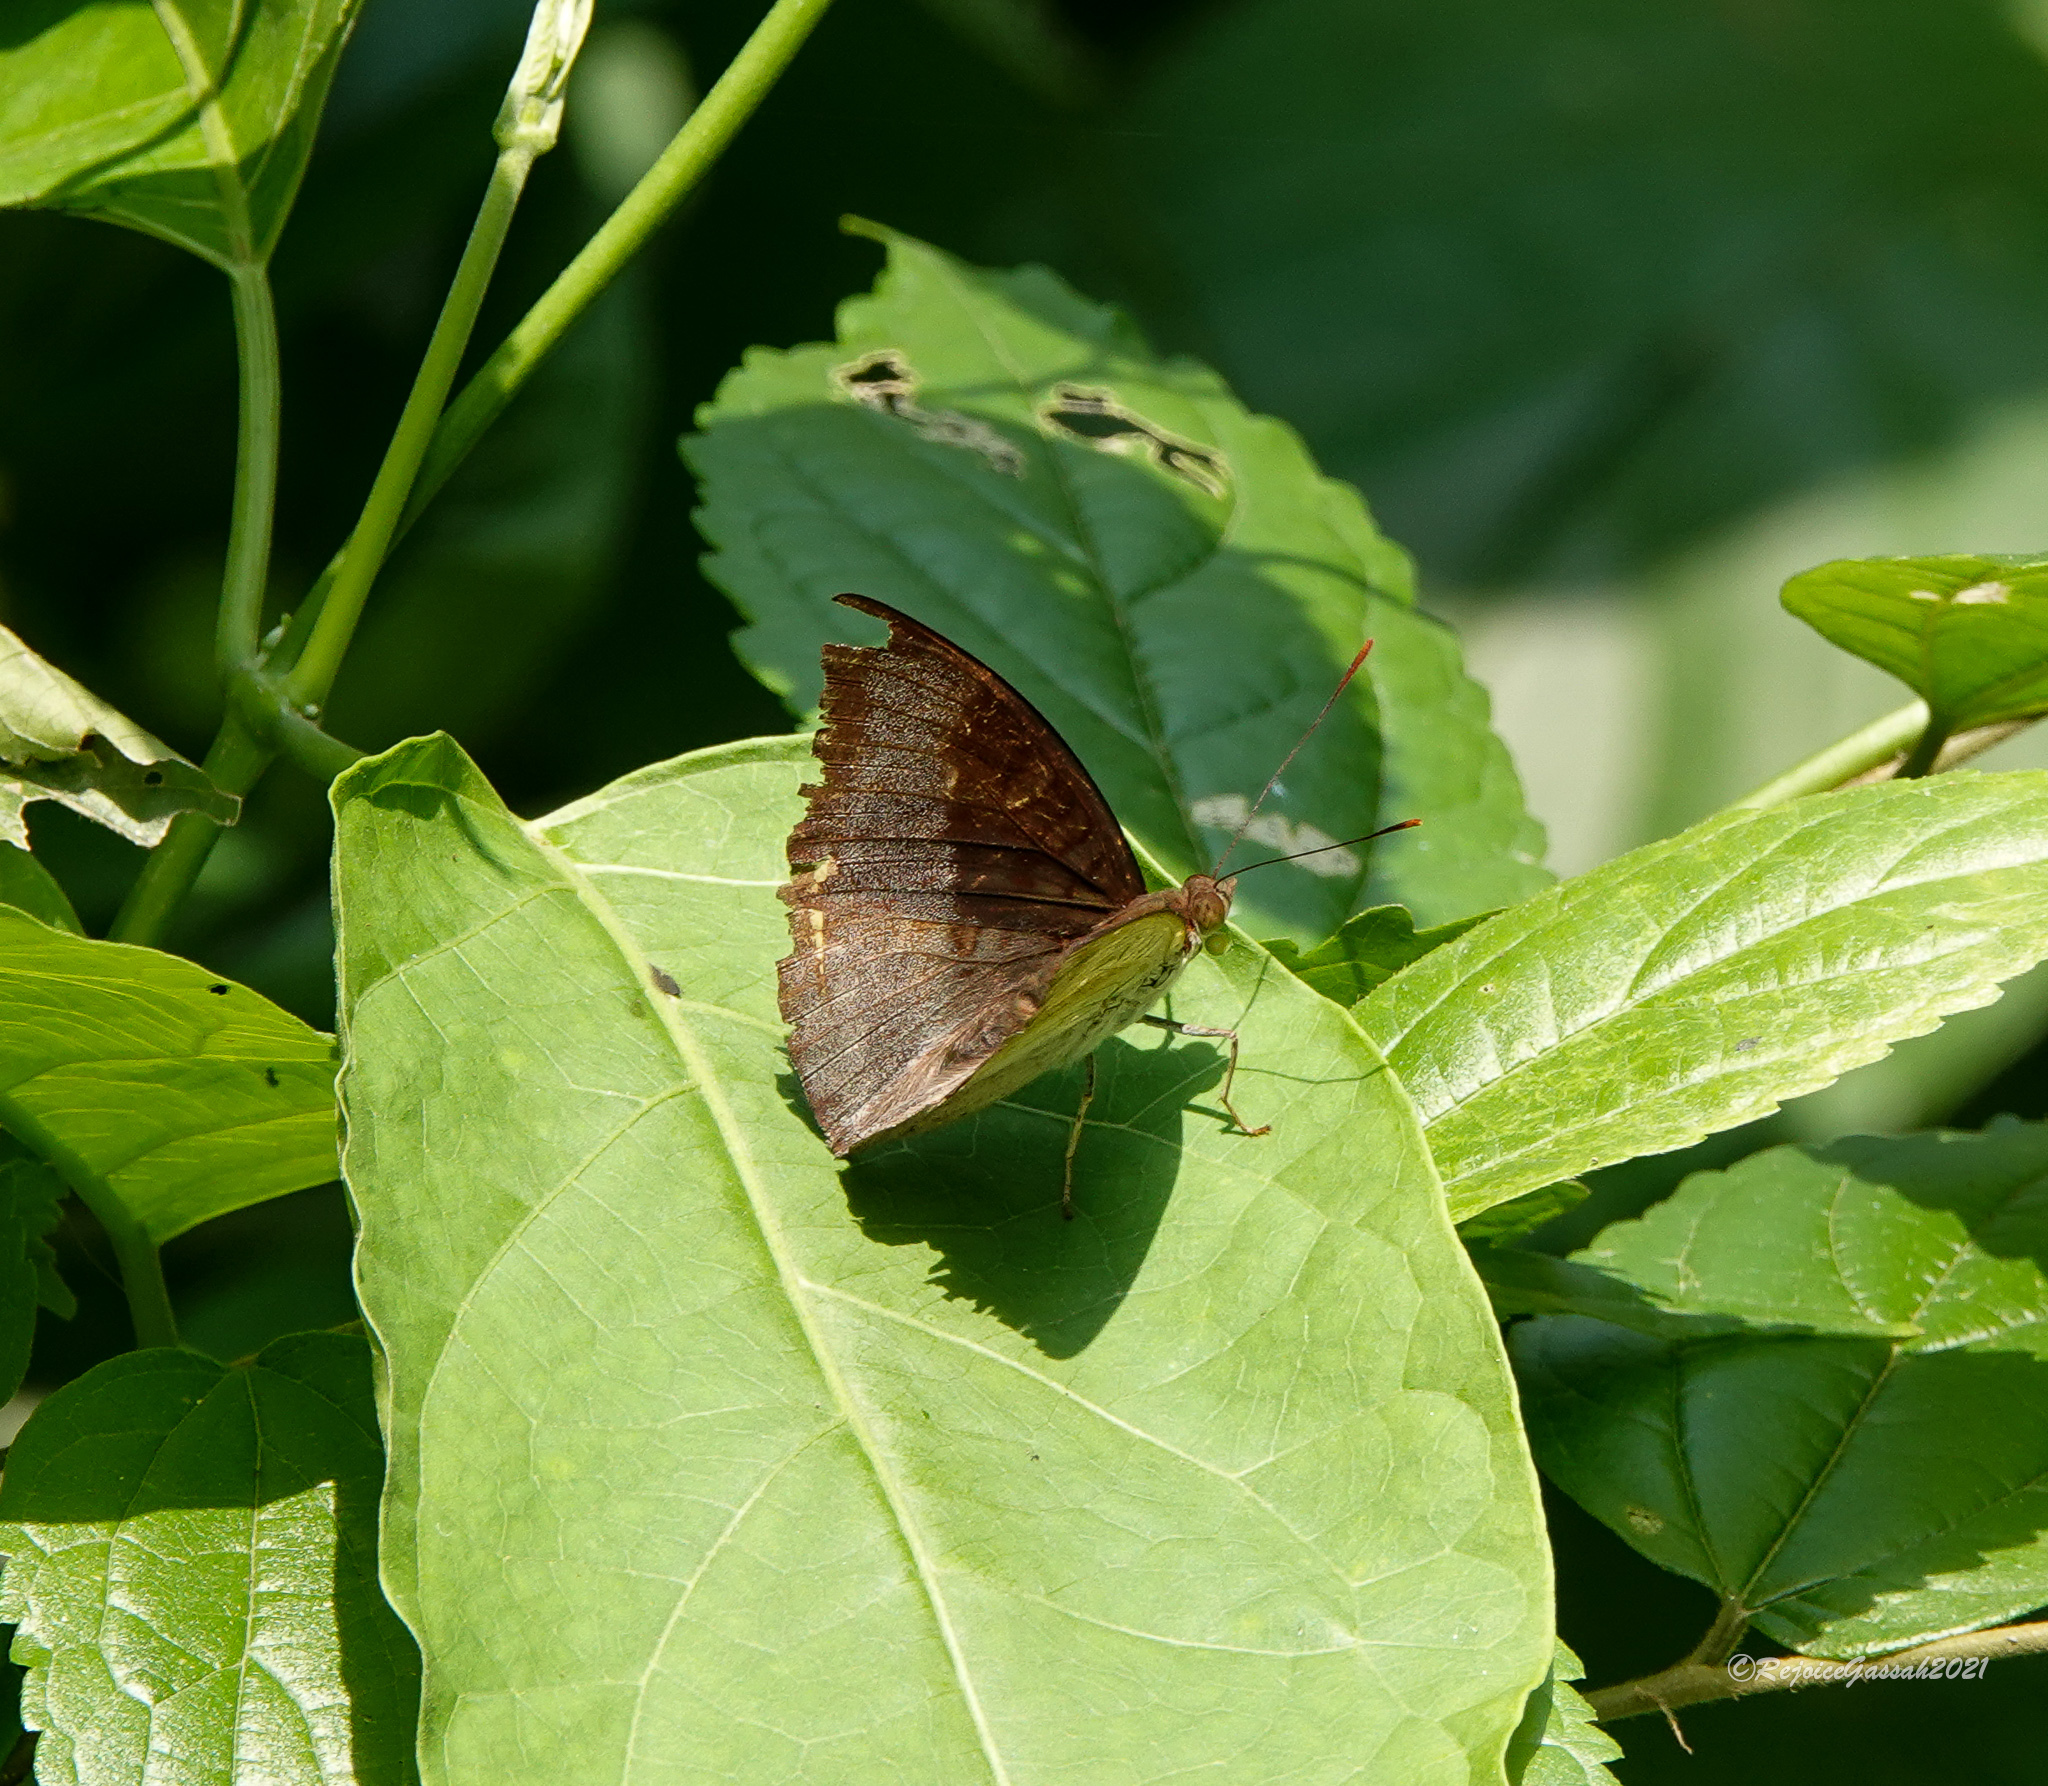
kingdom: Animalia
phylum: Arthropoda
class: Insecta
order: Lepidoptera
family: Nymphalidae
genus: Euthalia
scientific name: Euthalia monina
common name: Powdered baron
